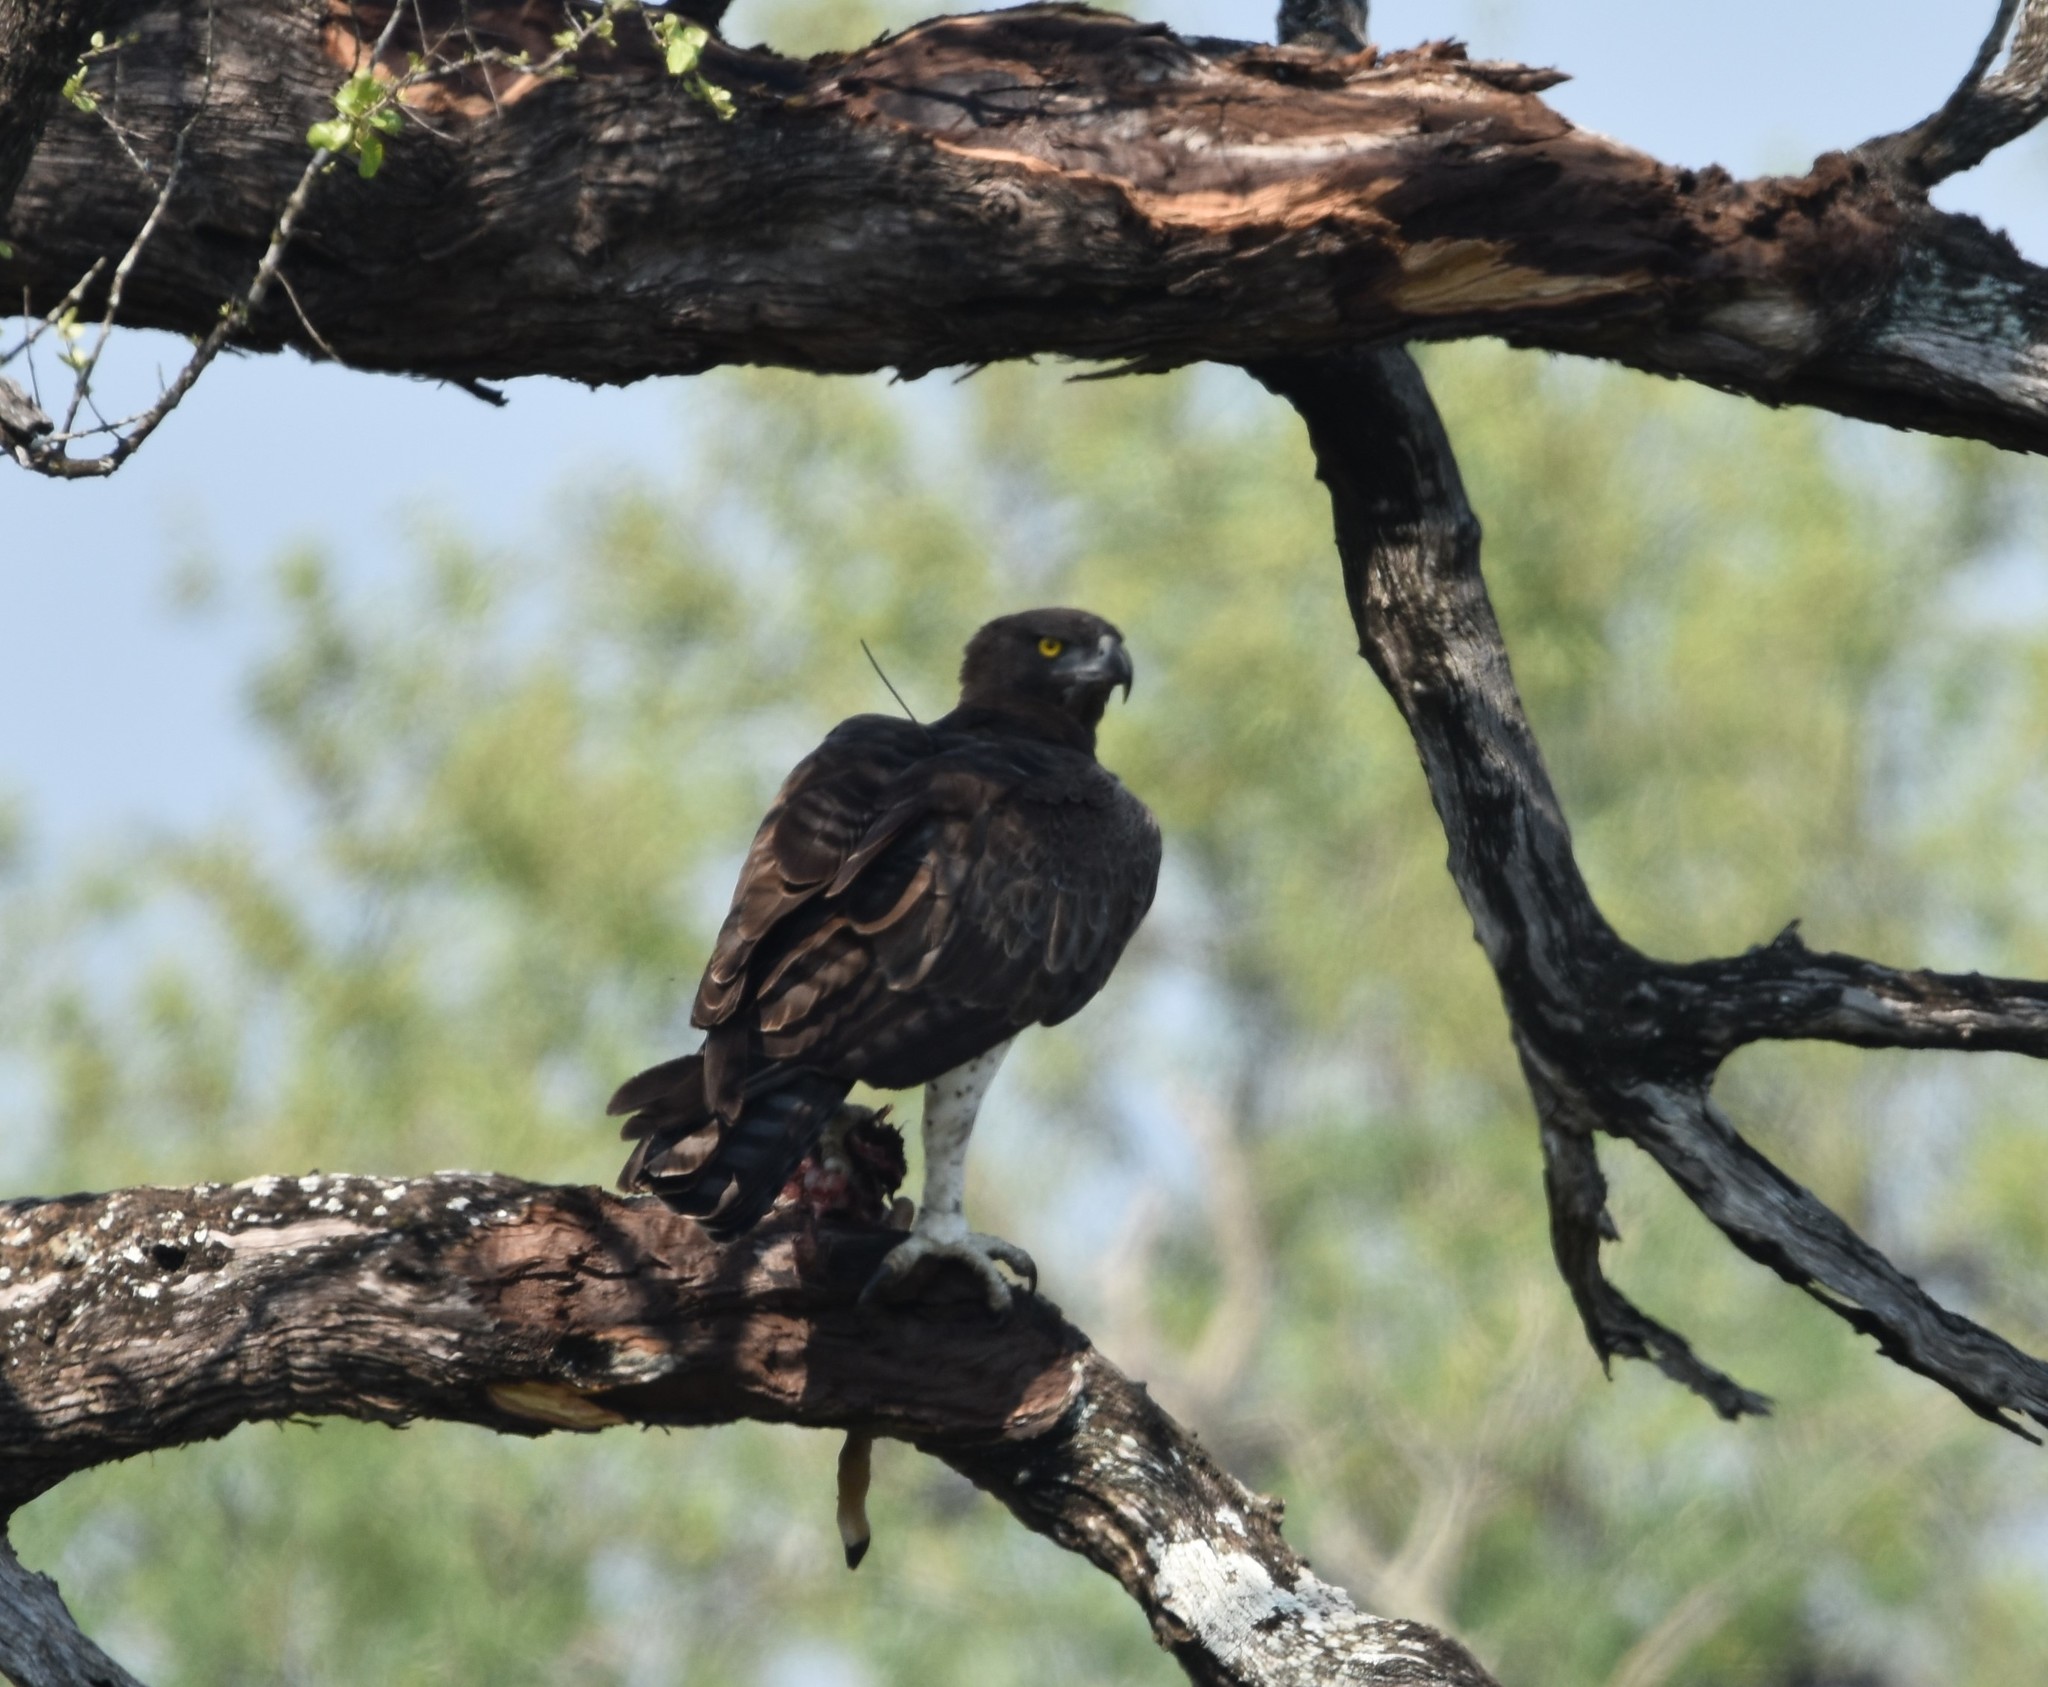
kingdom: Animalia
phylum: Chordata
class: Aves
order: Accipitriformes
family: Accipitridae
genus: Polemaetus
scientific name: Polemaetus bellicosus
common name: Martial eagle
